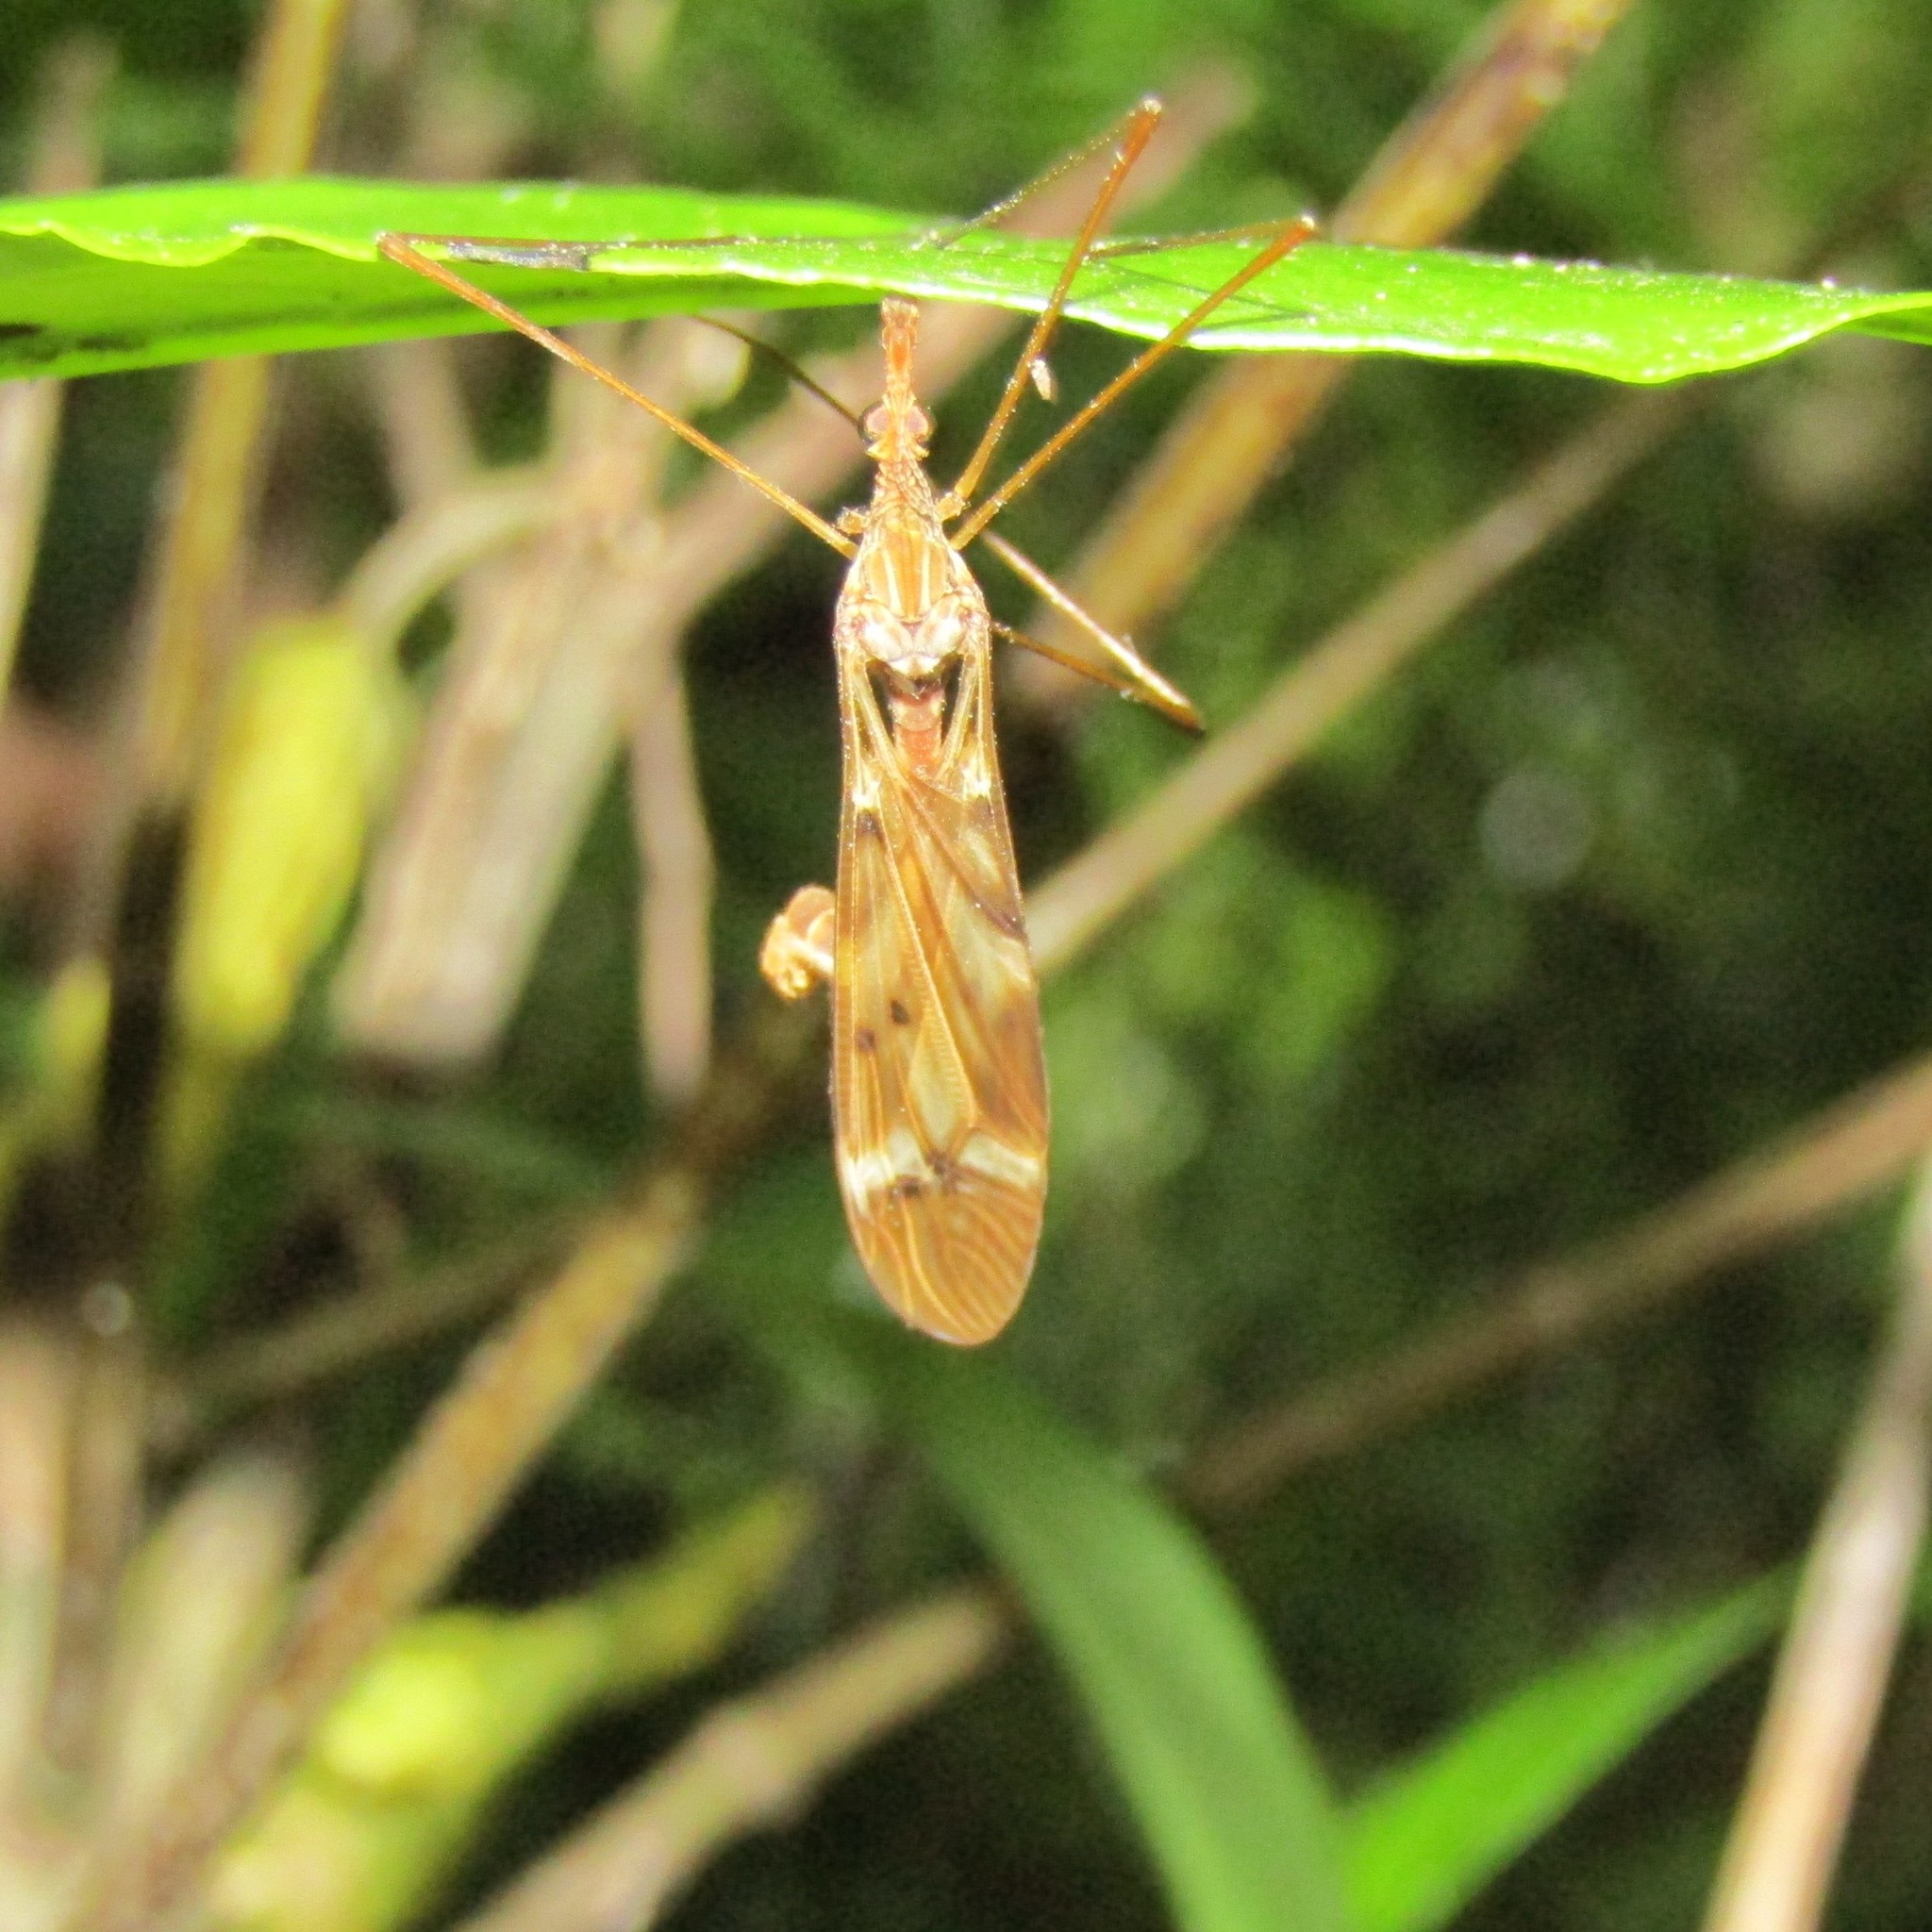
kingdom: Animalia
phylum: Arthropoda
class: Insecta
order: Diptera
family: Tipulidae
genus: Zelandotipula
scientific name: Zelandotipula fulva
